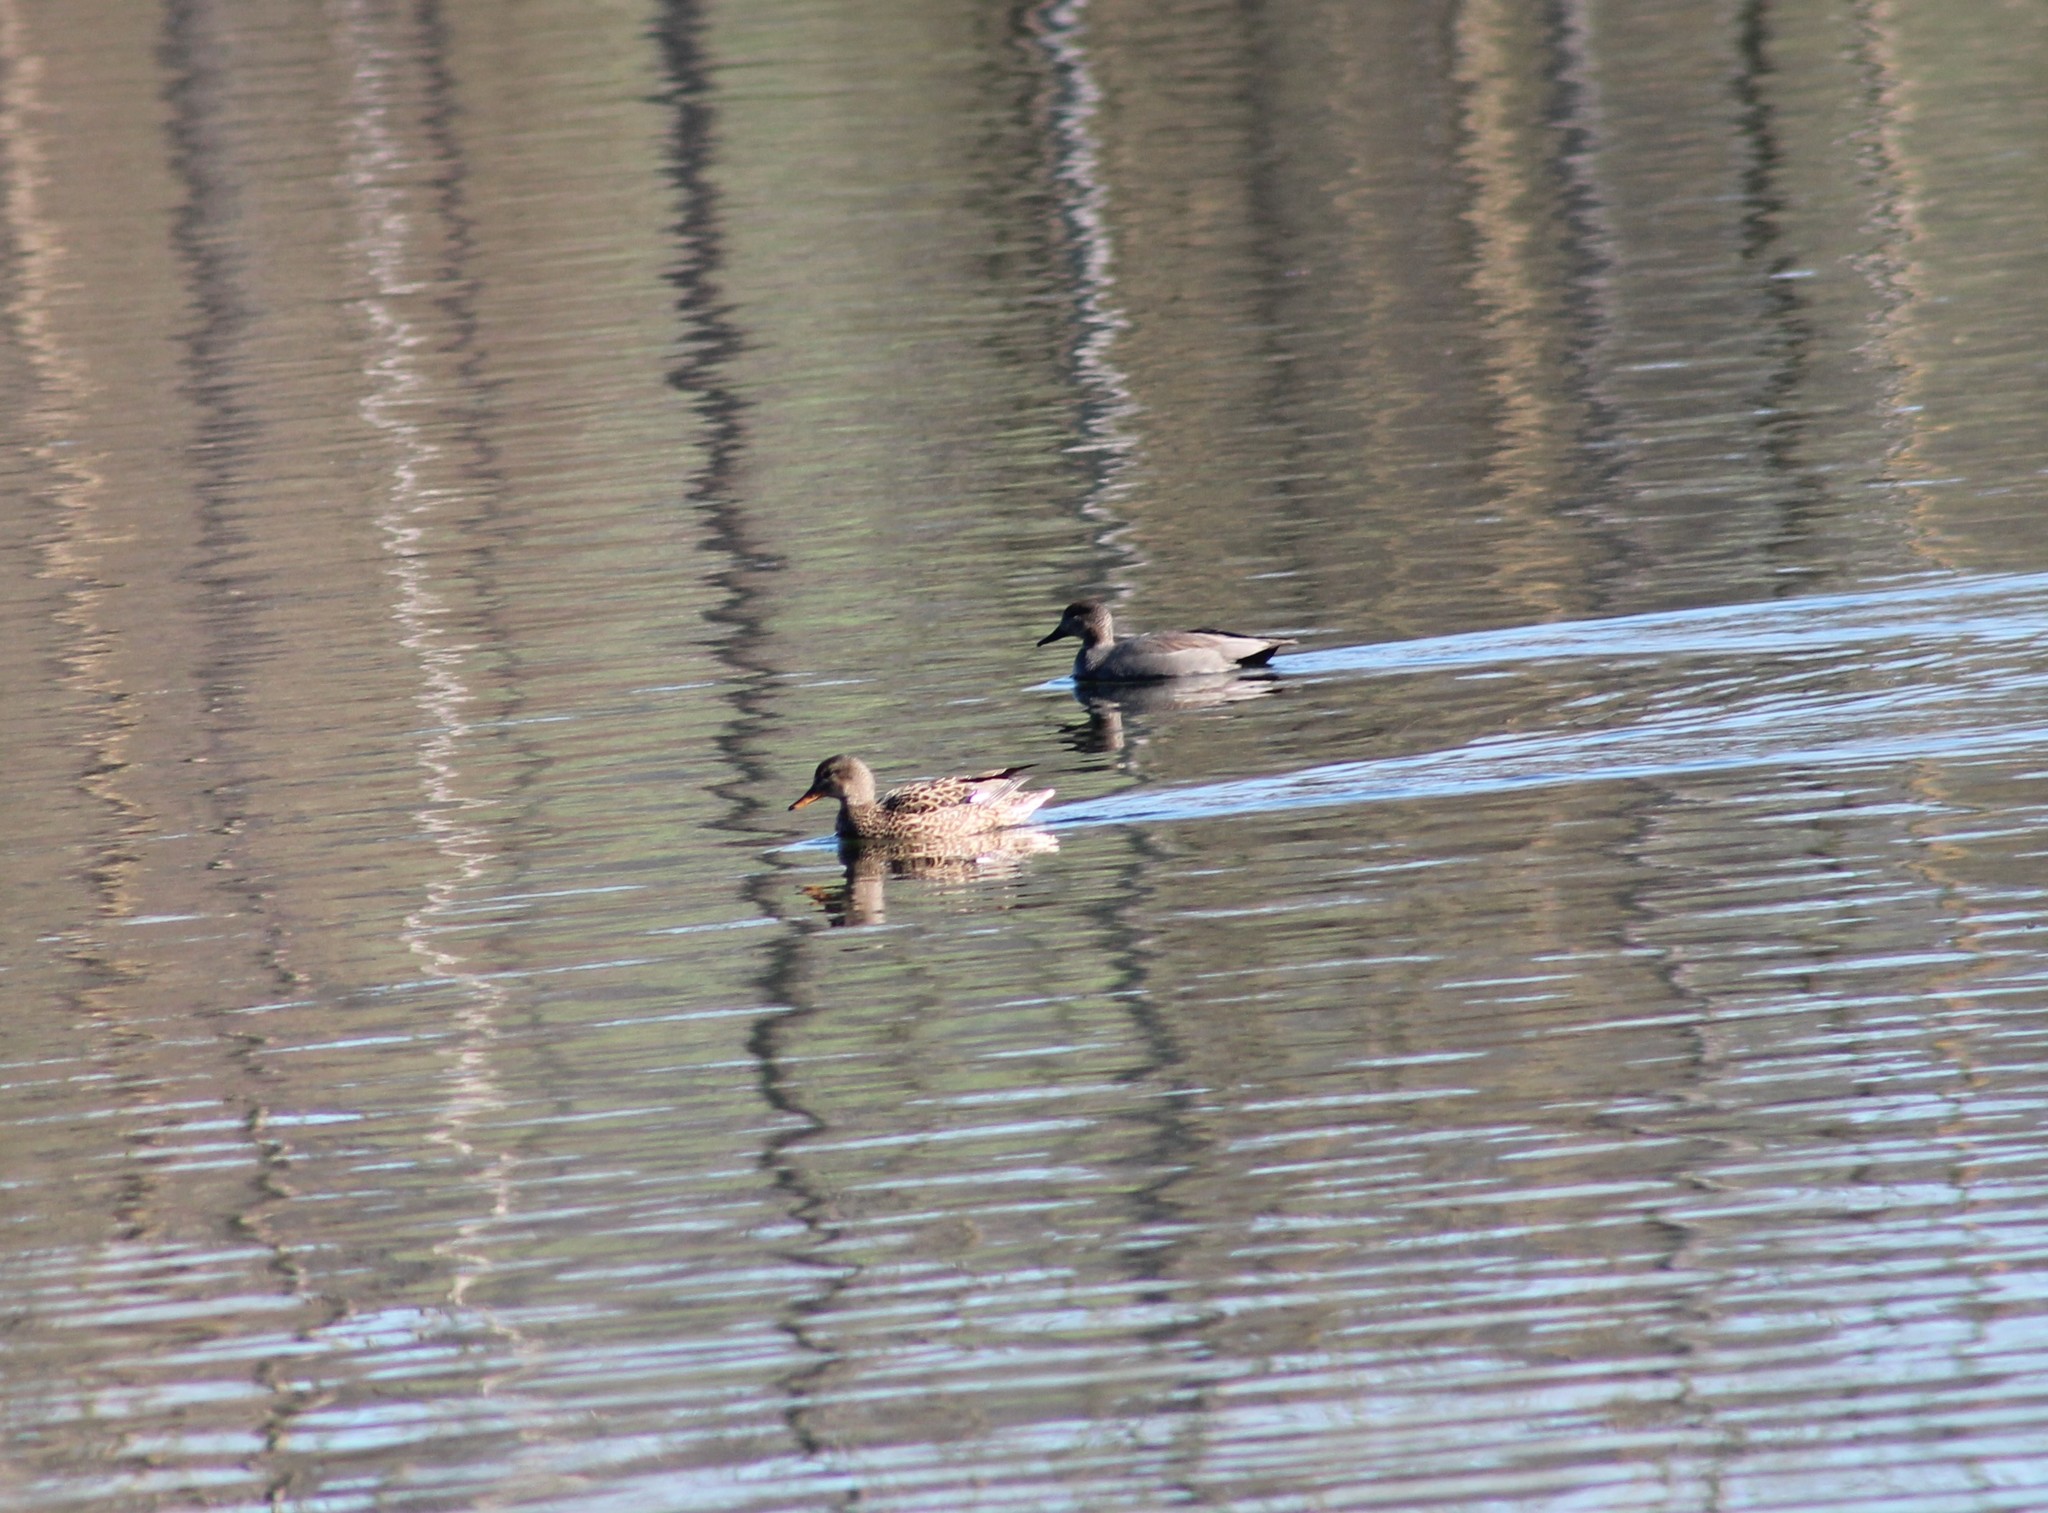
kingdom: Animalia
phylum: Chordata
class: Aves
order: Anseriformes
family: Anatidae
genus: Mareca
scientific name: Mareca strepera
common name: Gadwall
